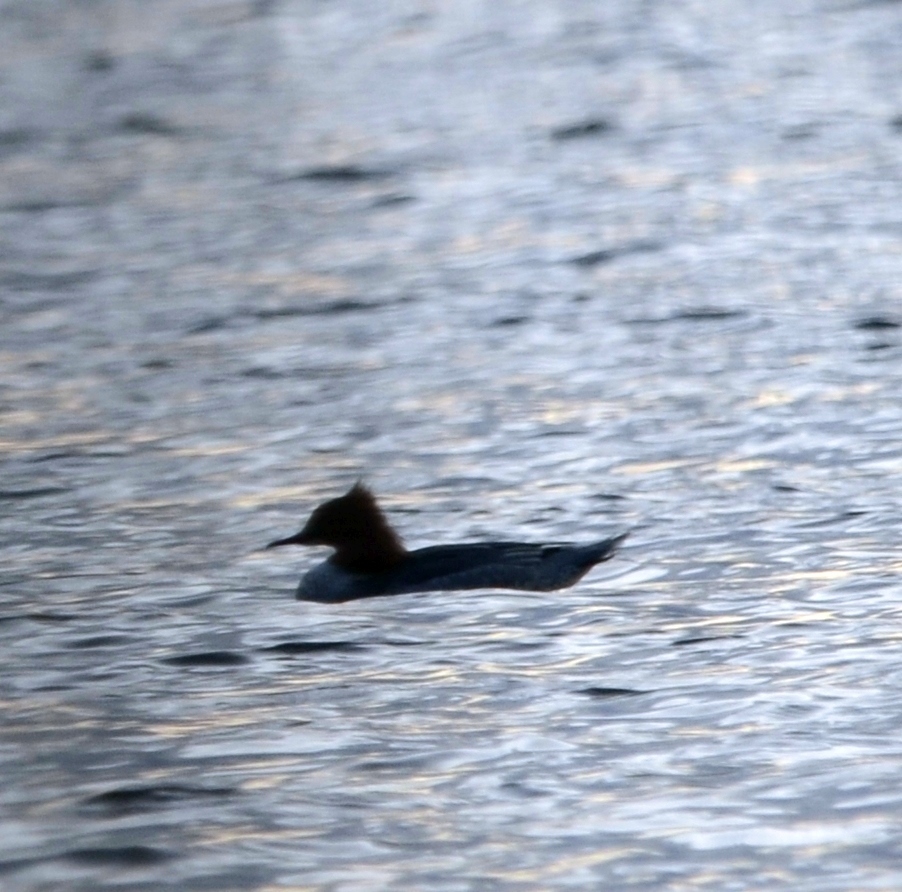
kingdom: Animalia
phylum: Chordata
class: Aves
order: Anseriformes
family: Anatidae
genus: Mergus
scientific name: Mergus merganser
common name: Common merganser
